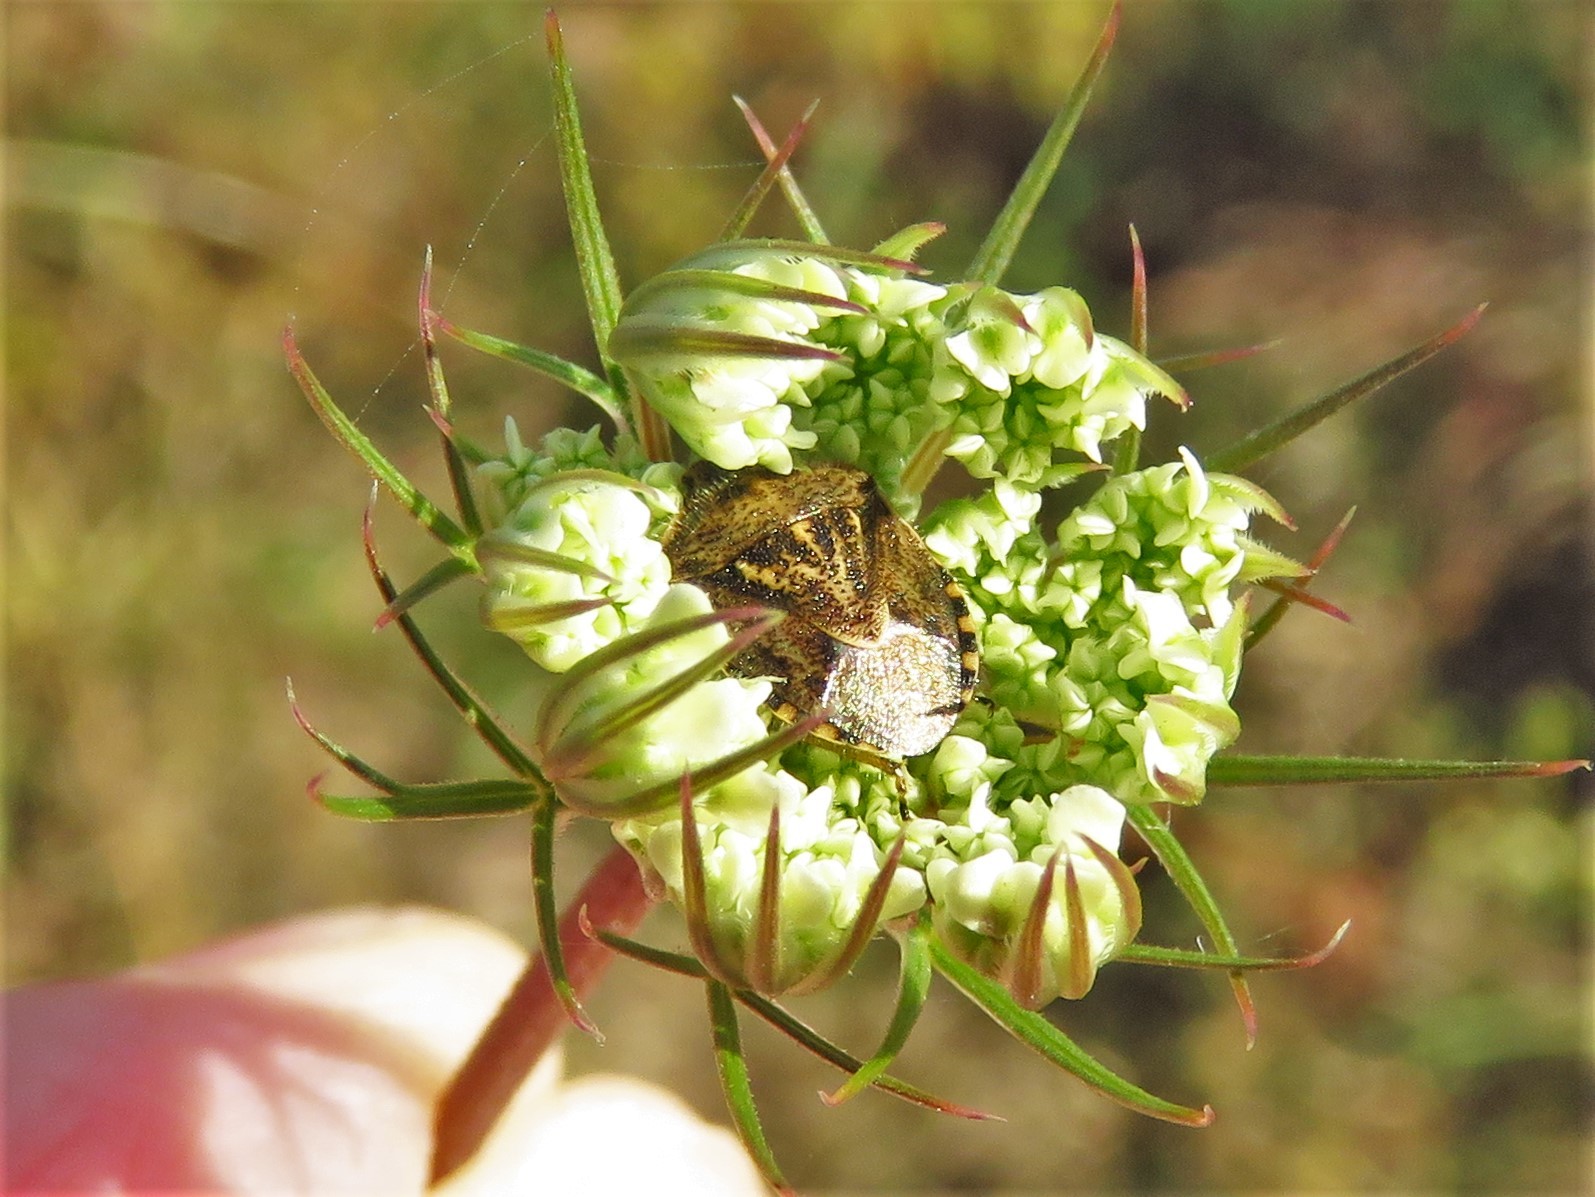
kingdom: Animalia
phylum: Arthropoda
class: Insecta
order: Hemiptera
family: Pentatomidae
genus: Trichopepla
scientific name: Trichopepla semivittata
